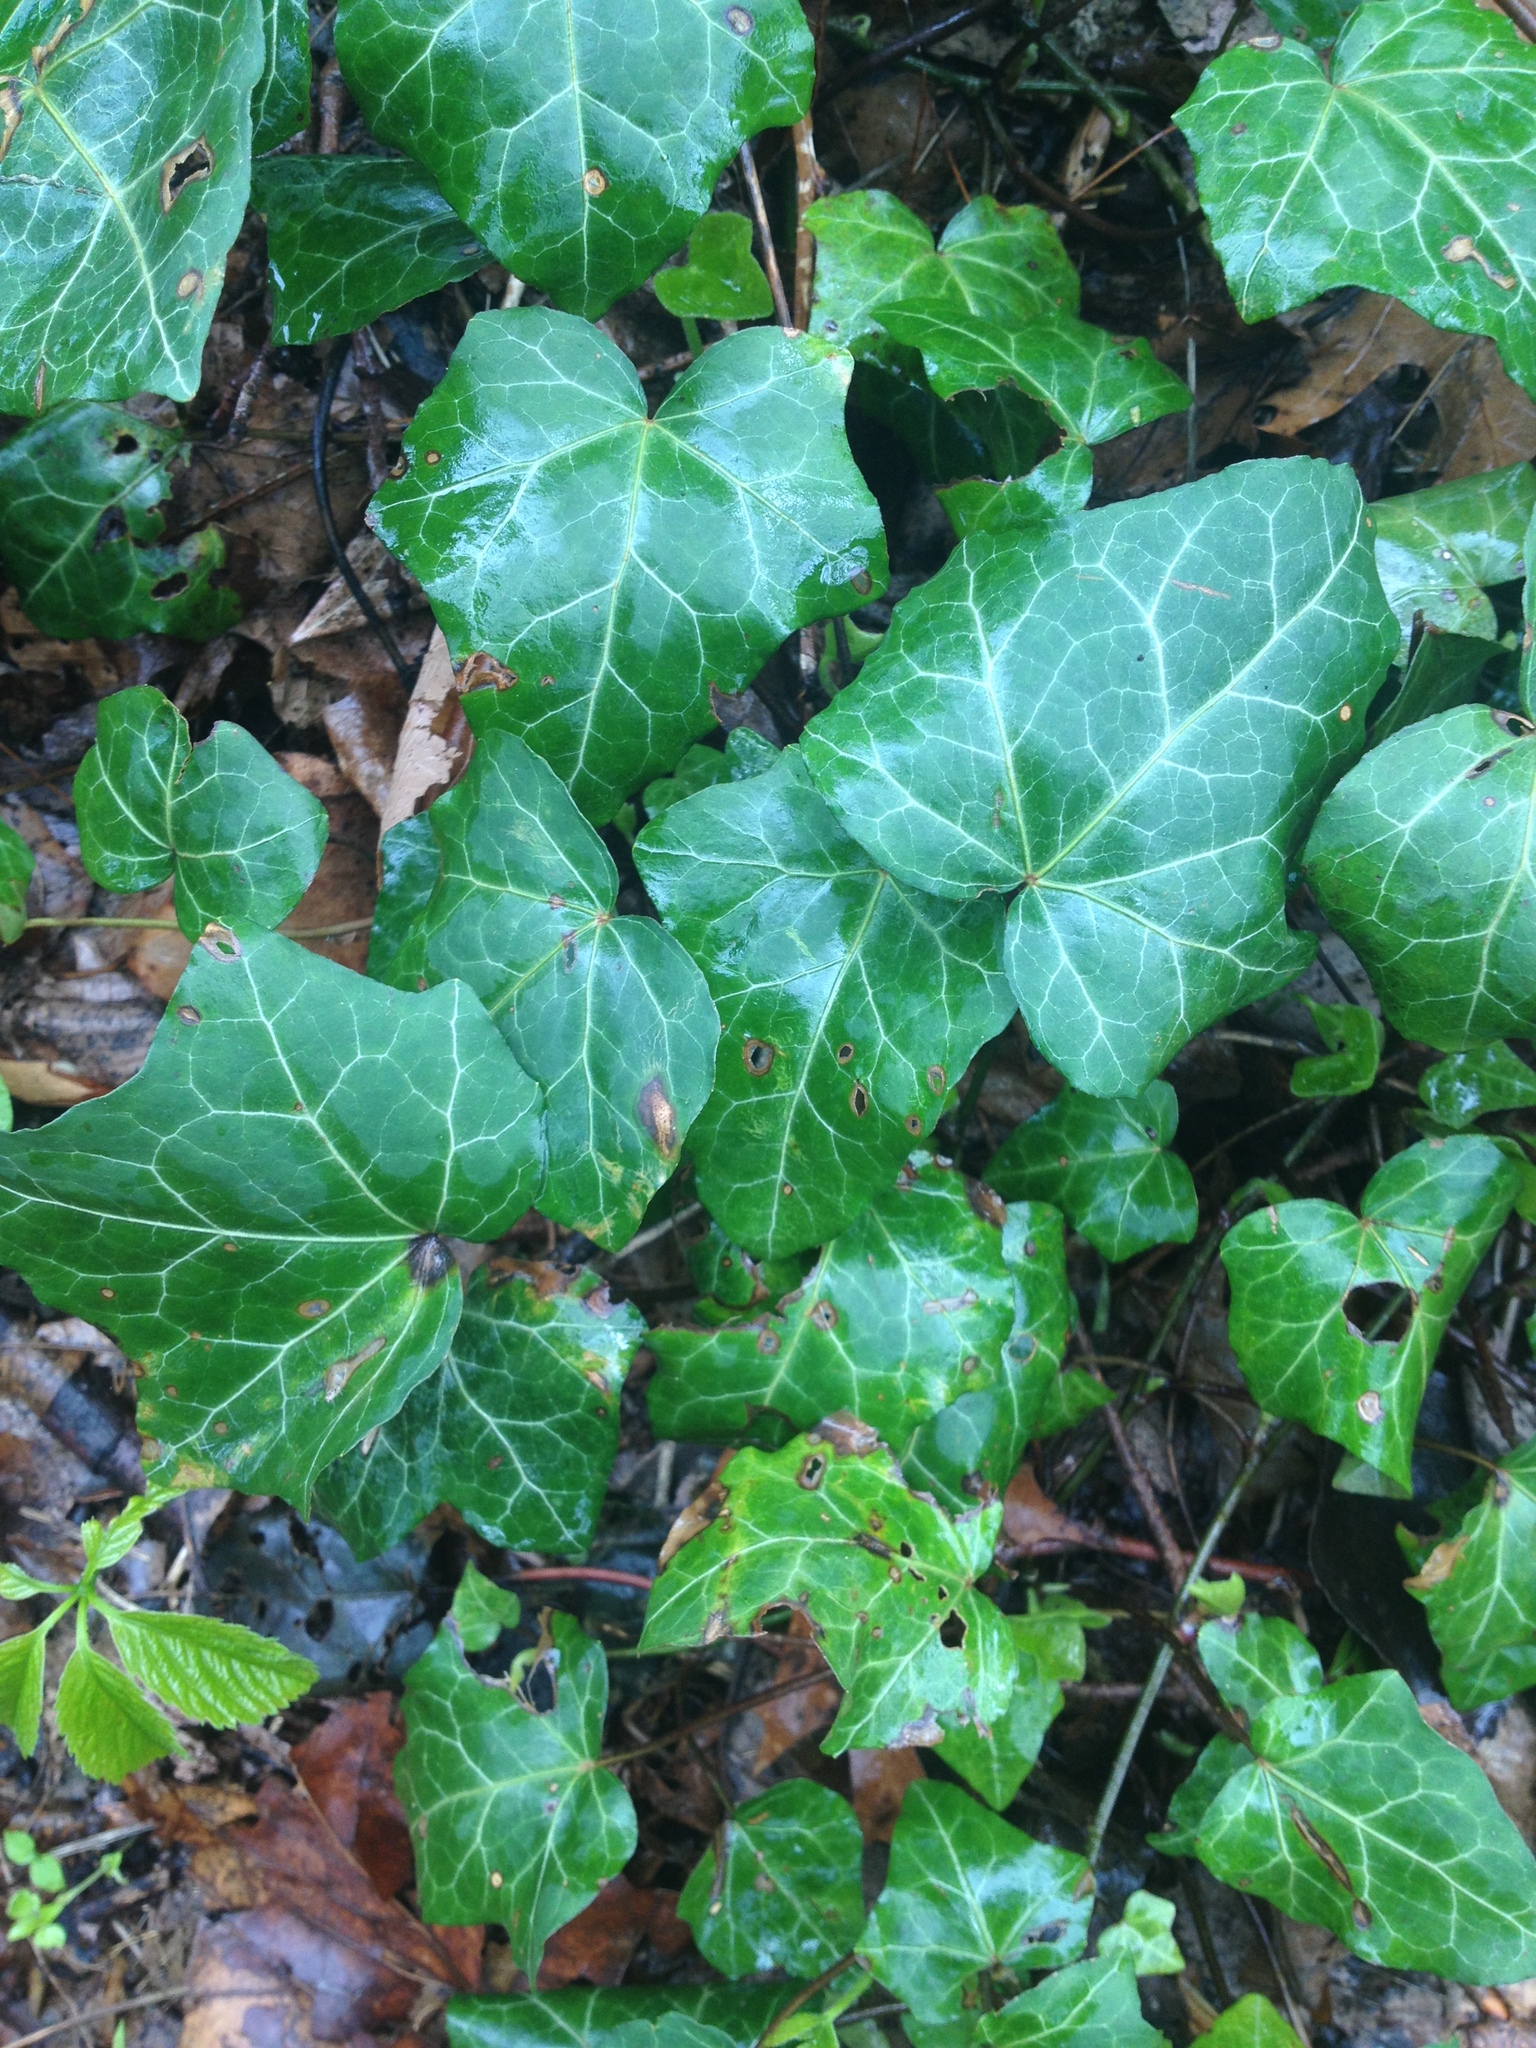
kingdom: Plantae
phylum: Tracheophyta
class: Magnoliopsida
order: Apiales
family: Araliaceae
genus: Hedera
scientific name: Hedera helix
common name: Ivy
